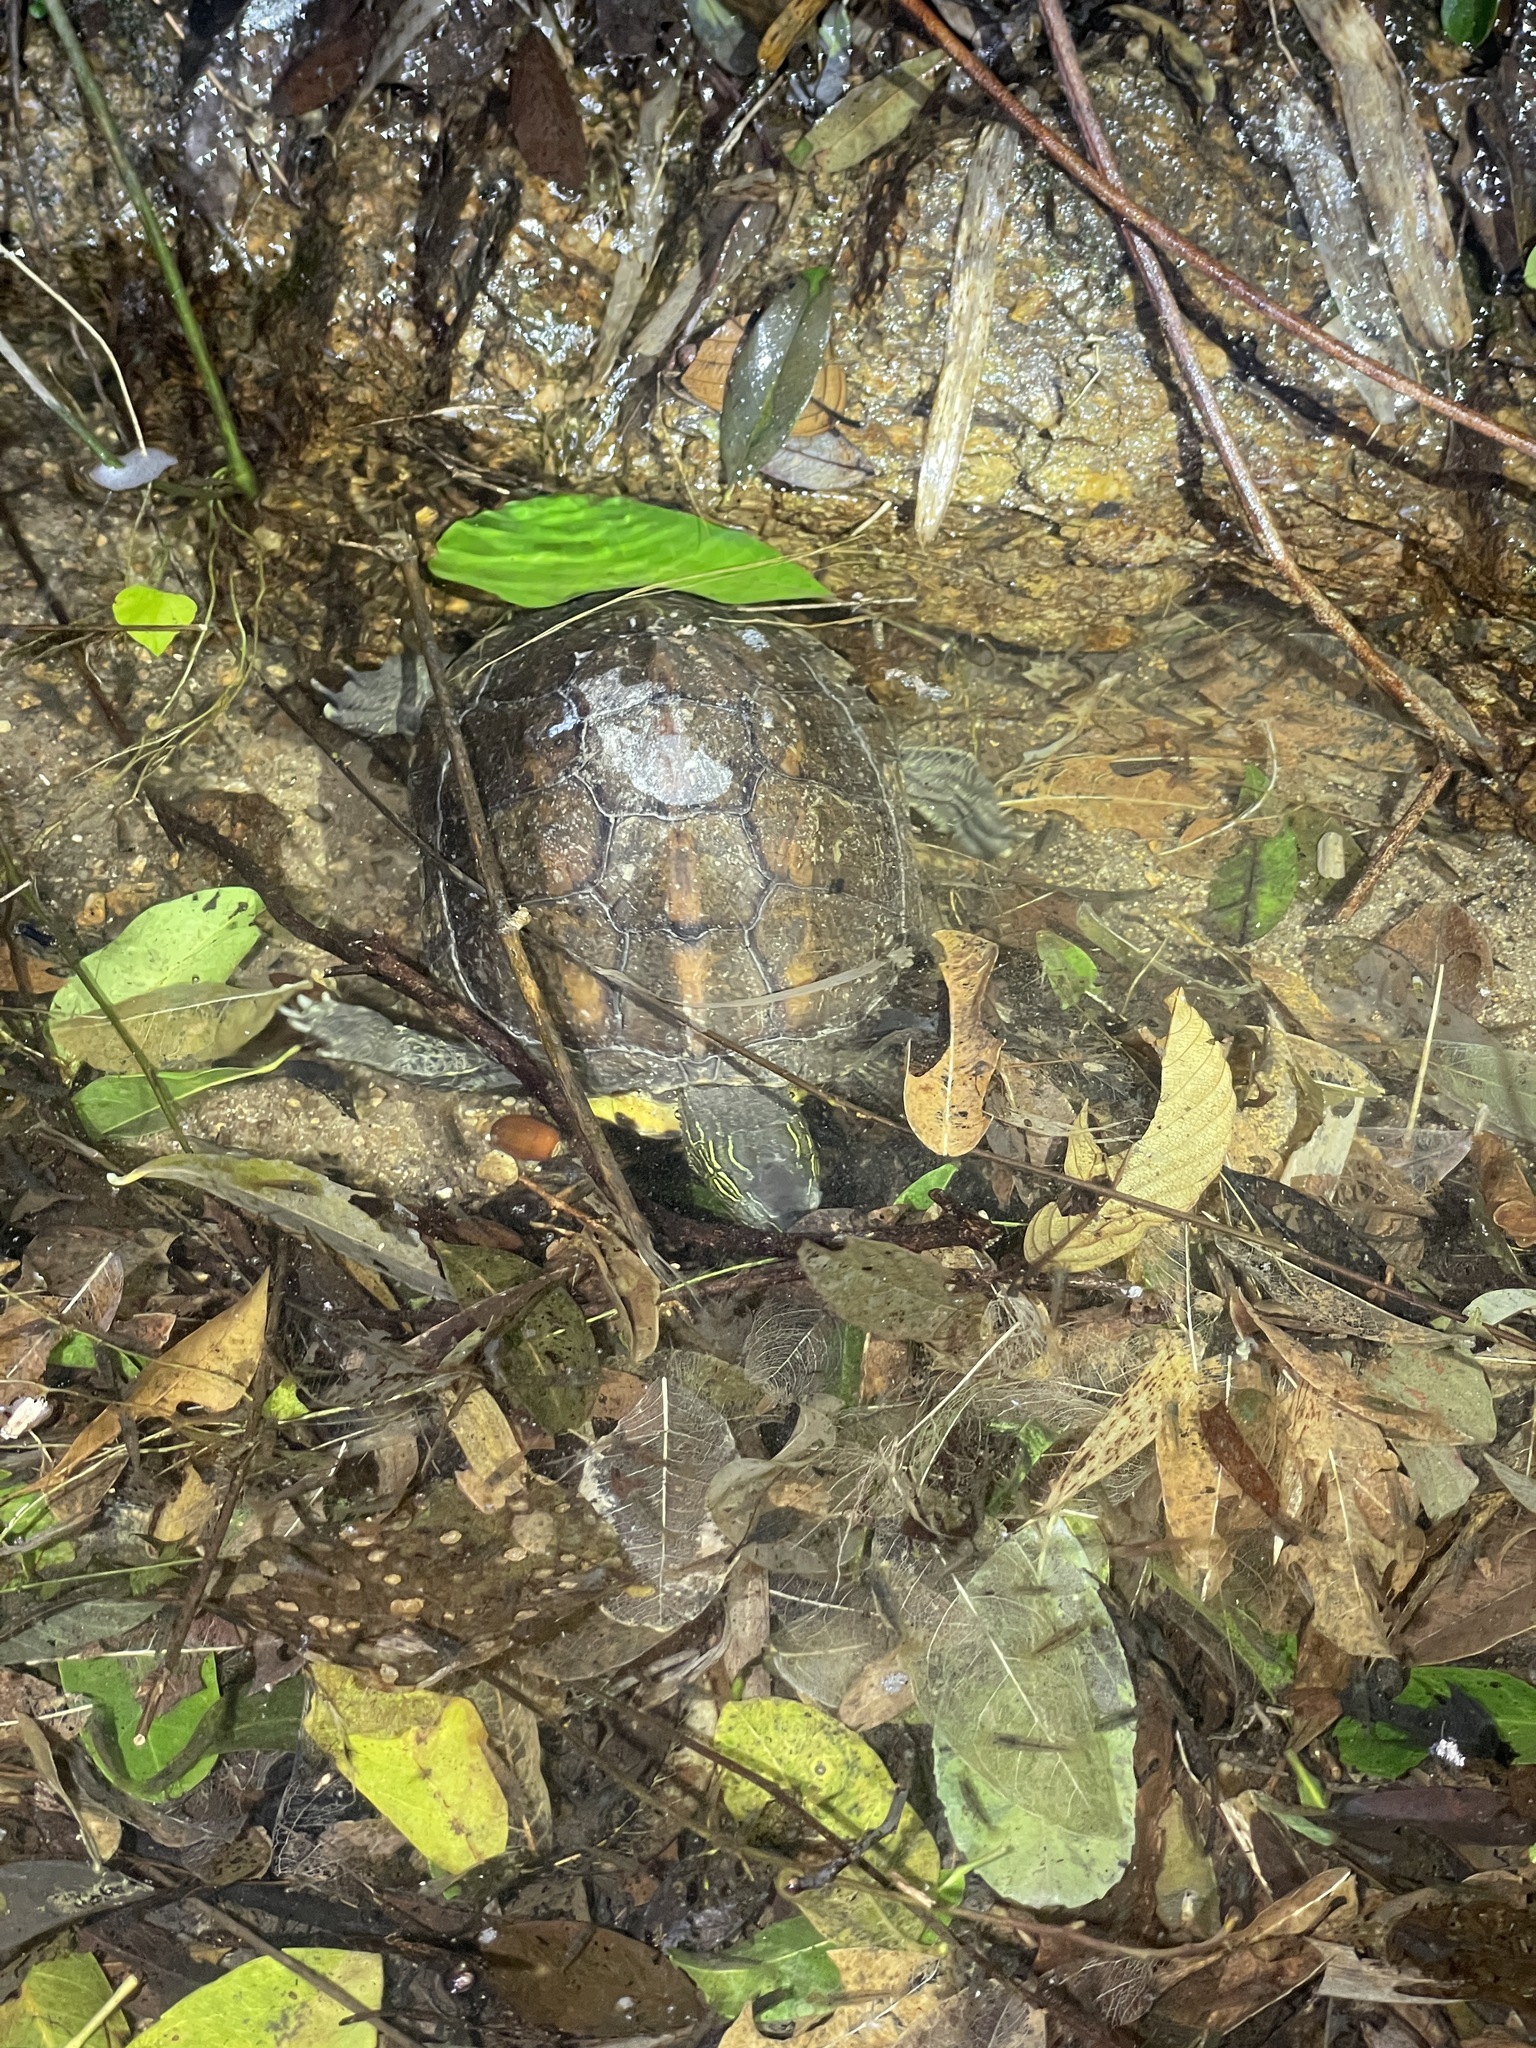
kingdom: Animalia
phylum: Chordata
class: Testudines
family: Geoemydidae
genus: Mauremys
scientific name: Mauremys sinensis
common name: Chinese stripe-necked turtle
